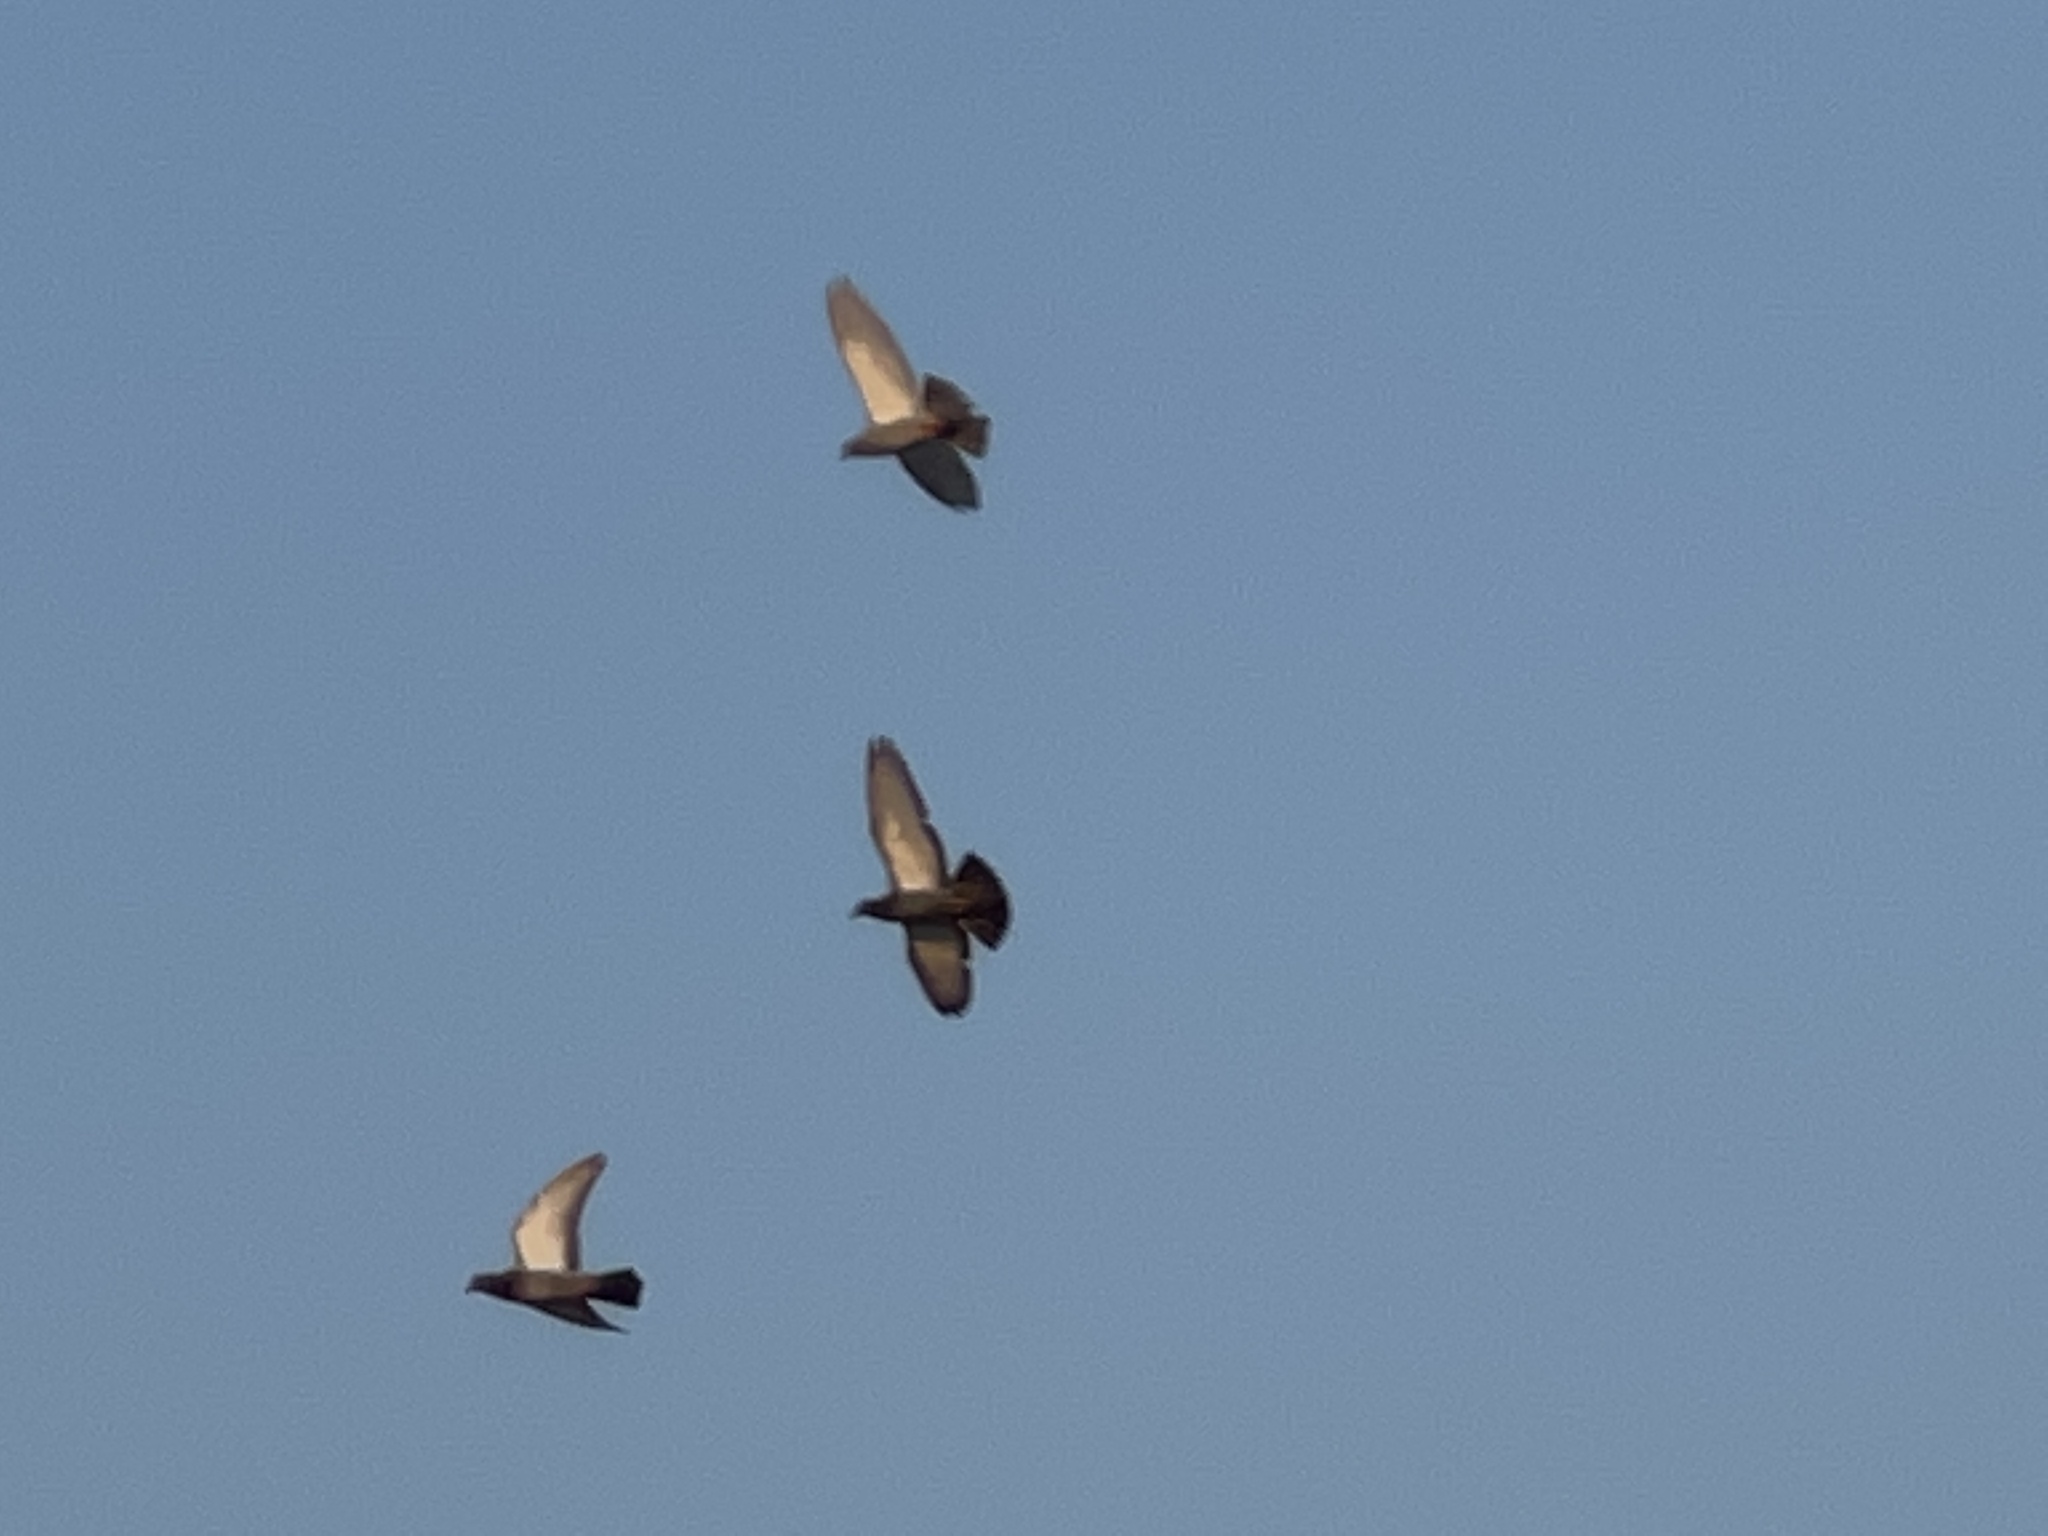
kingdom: Animalia
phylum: Chordata
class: Aves
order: Columbiformes
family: Columbidae
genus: Columba
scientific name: Columba livia
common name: Rock pigeon
